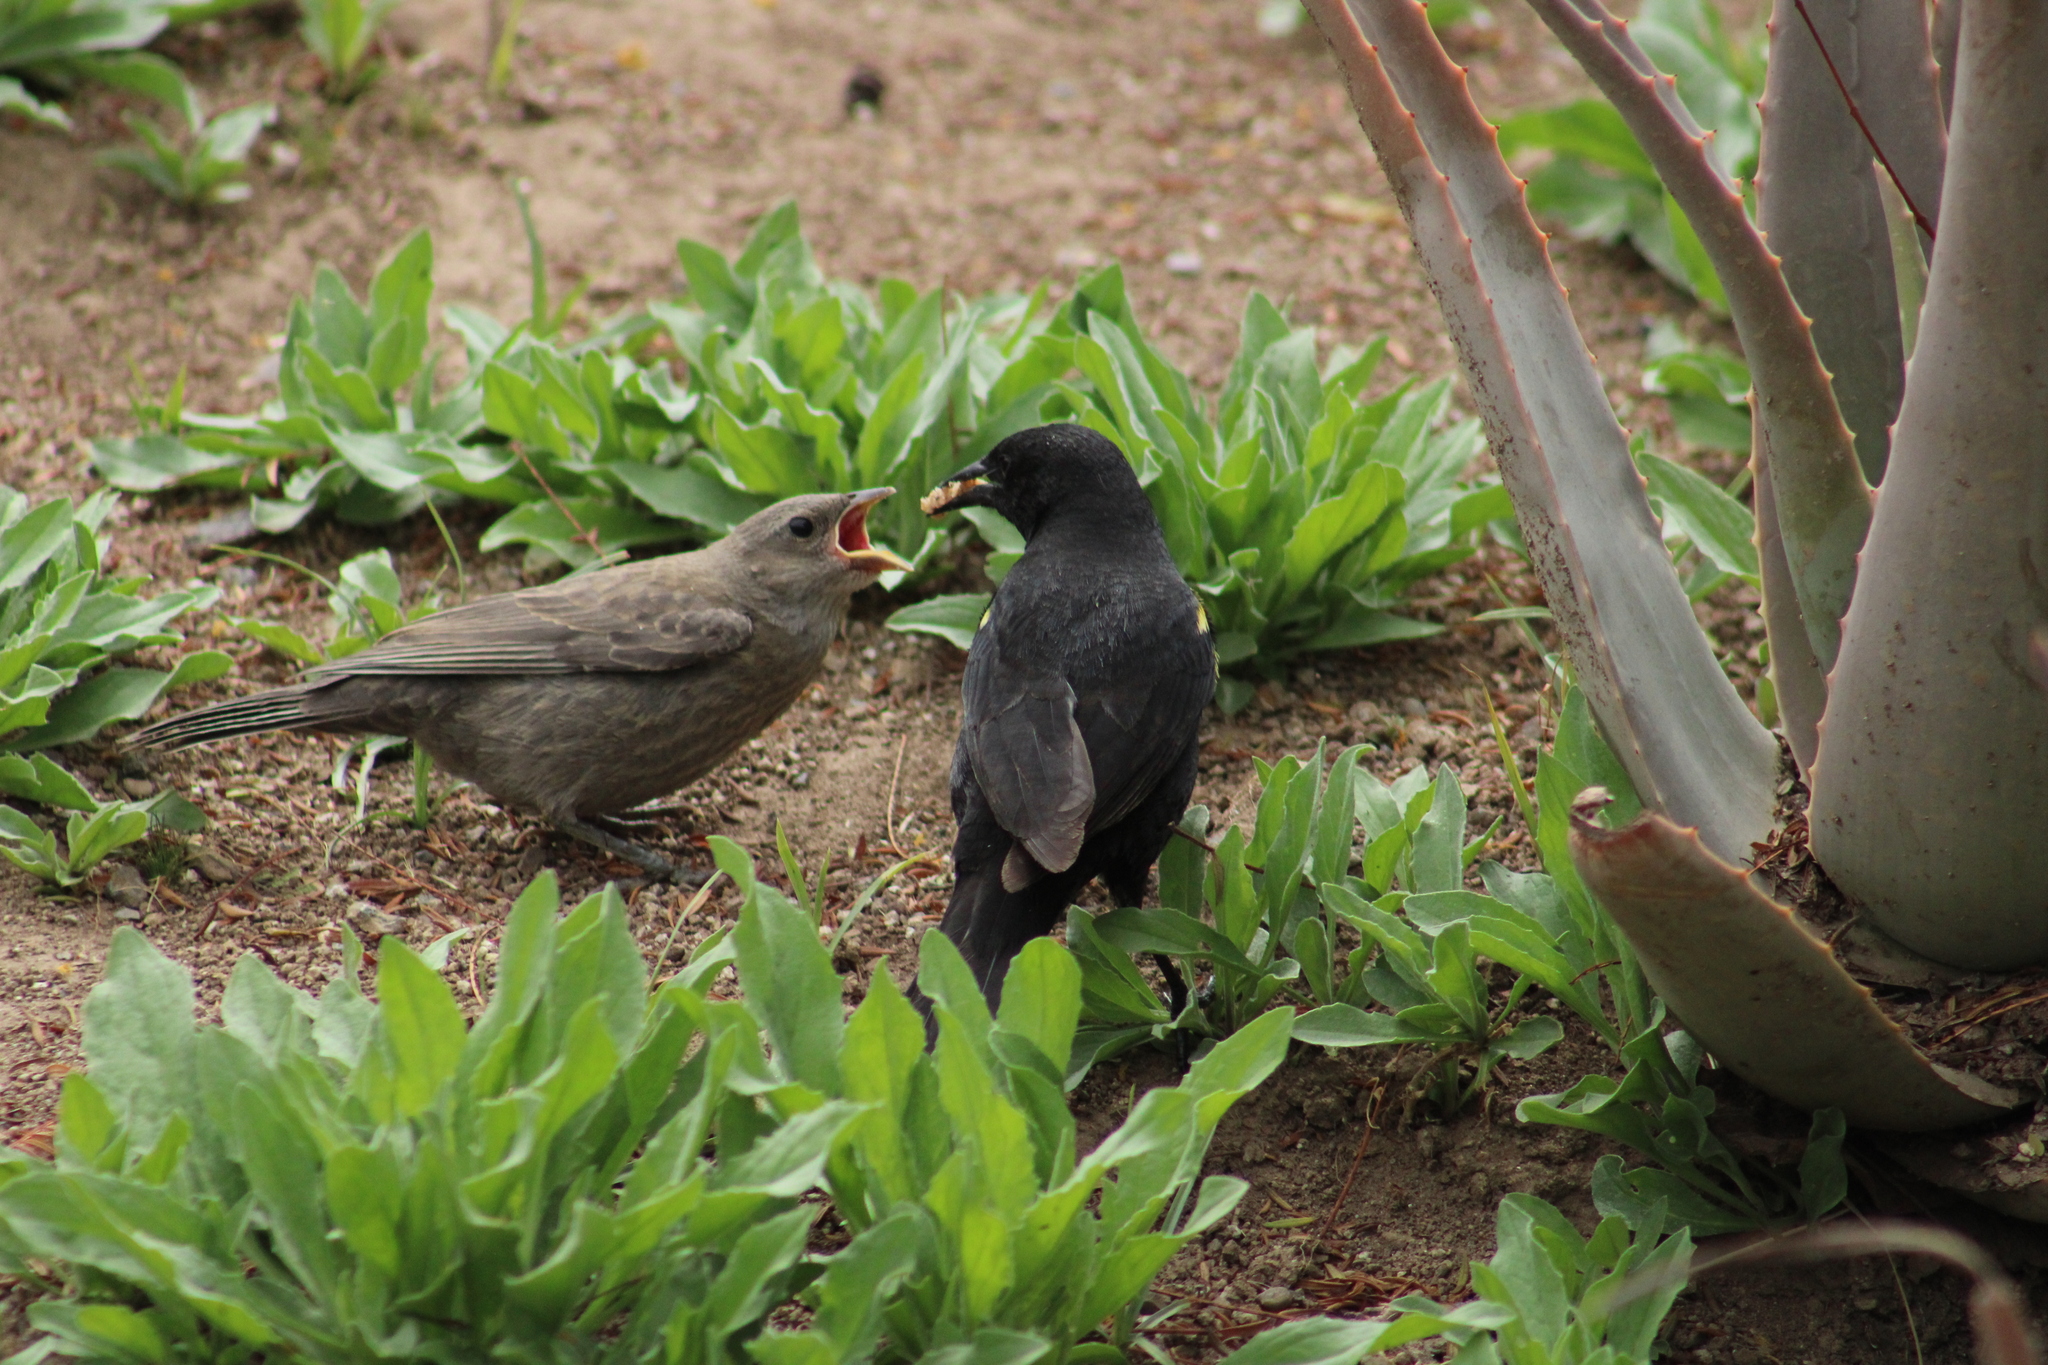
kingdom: Animalia
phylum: Chordata
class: Aves
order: Passeriformes
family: Icteridae
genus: Agelasticus
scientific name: Agelasticus thilius
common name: Yellow-winged blackbird
